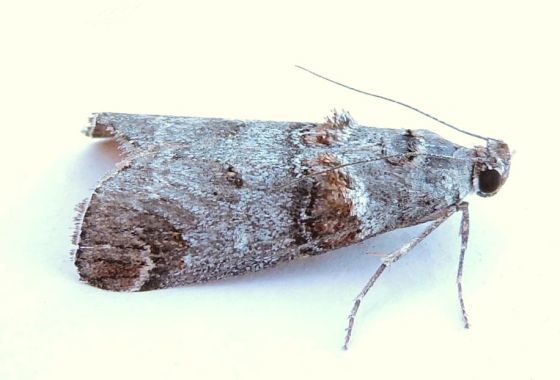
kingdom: Animalia
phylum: Arthropoda
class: Insecta
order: Lepidoptera
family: Pyralidae
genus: Oneida
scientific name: Oneida luniferella
